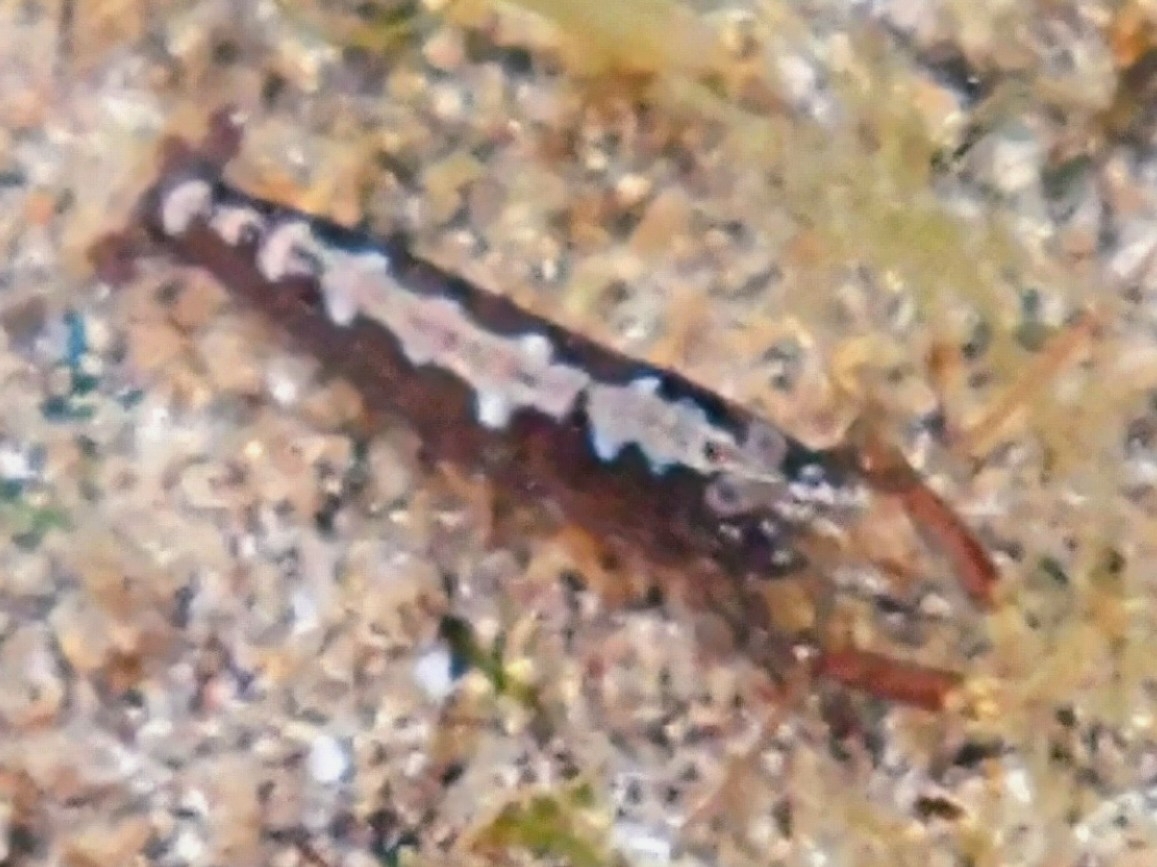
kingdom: Animalia
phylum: Arthropoda
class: Malacostraca
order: Decapoda
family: Alpheidae
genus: Athanas
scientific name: Athanas nitescens
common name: Hooded shrimp
